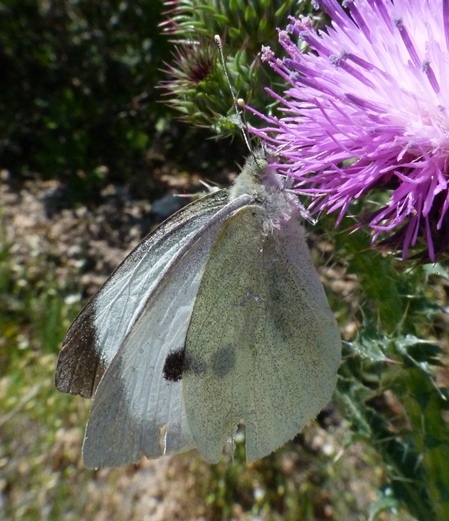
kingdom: Animalia
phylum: Arthropoda
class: Insecta
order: Lepidoptera
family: Pieridae
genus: Pieris
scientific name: Pieris brassicae
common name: Large white
